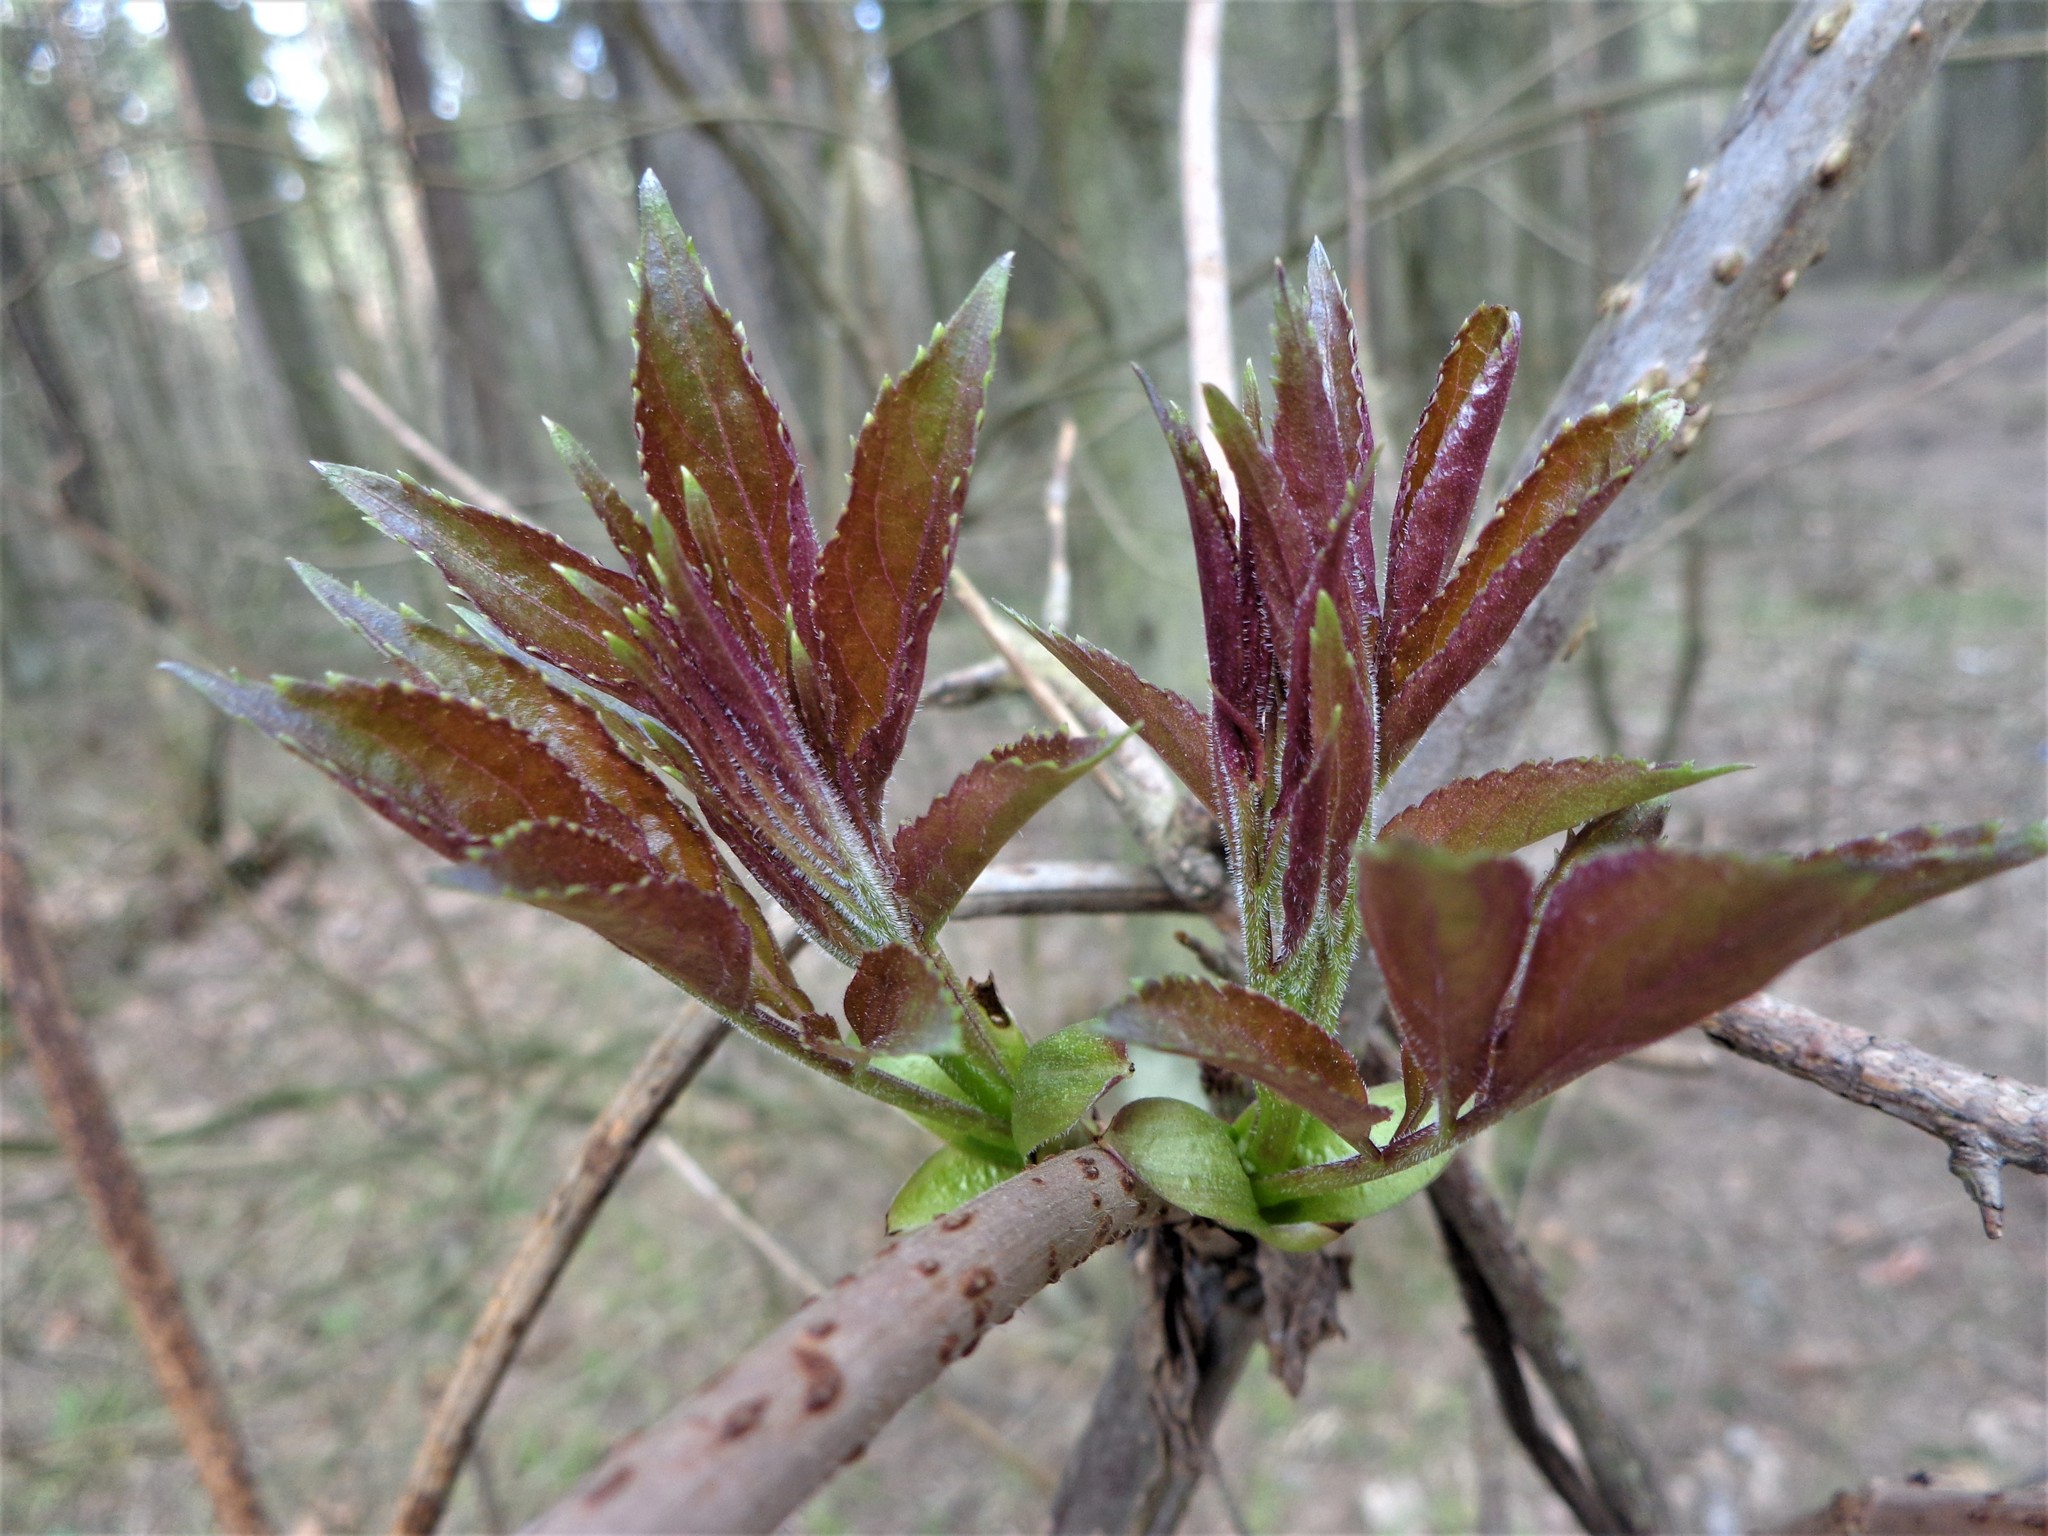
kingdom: Plantae
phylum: Tracheophyta
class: Magnoliopsida
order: Dipsacales
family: Viburnaceae
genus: Sambucus
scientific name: Sambucus racemosa
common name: Red-berried elder
